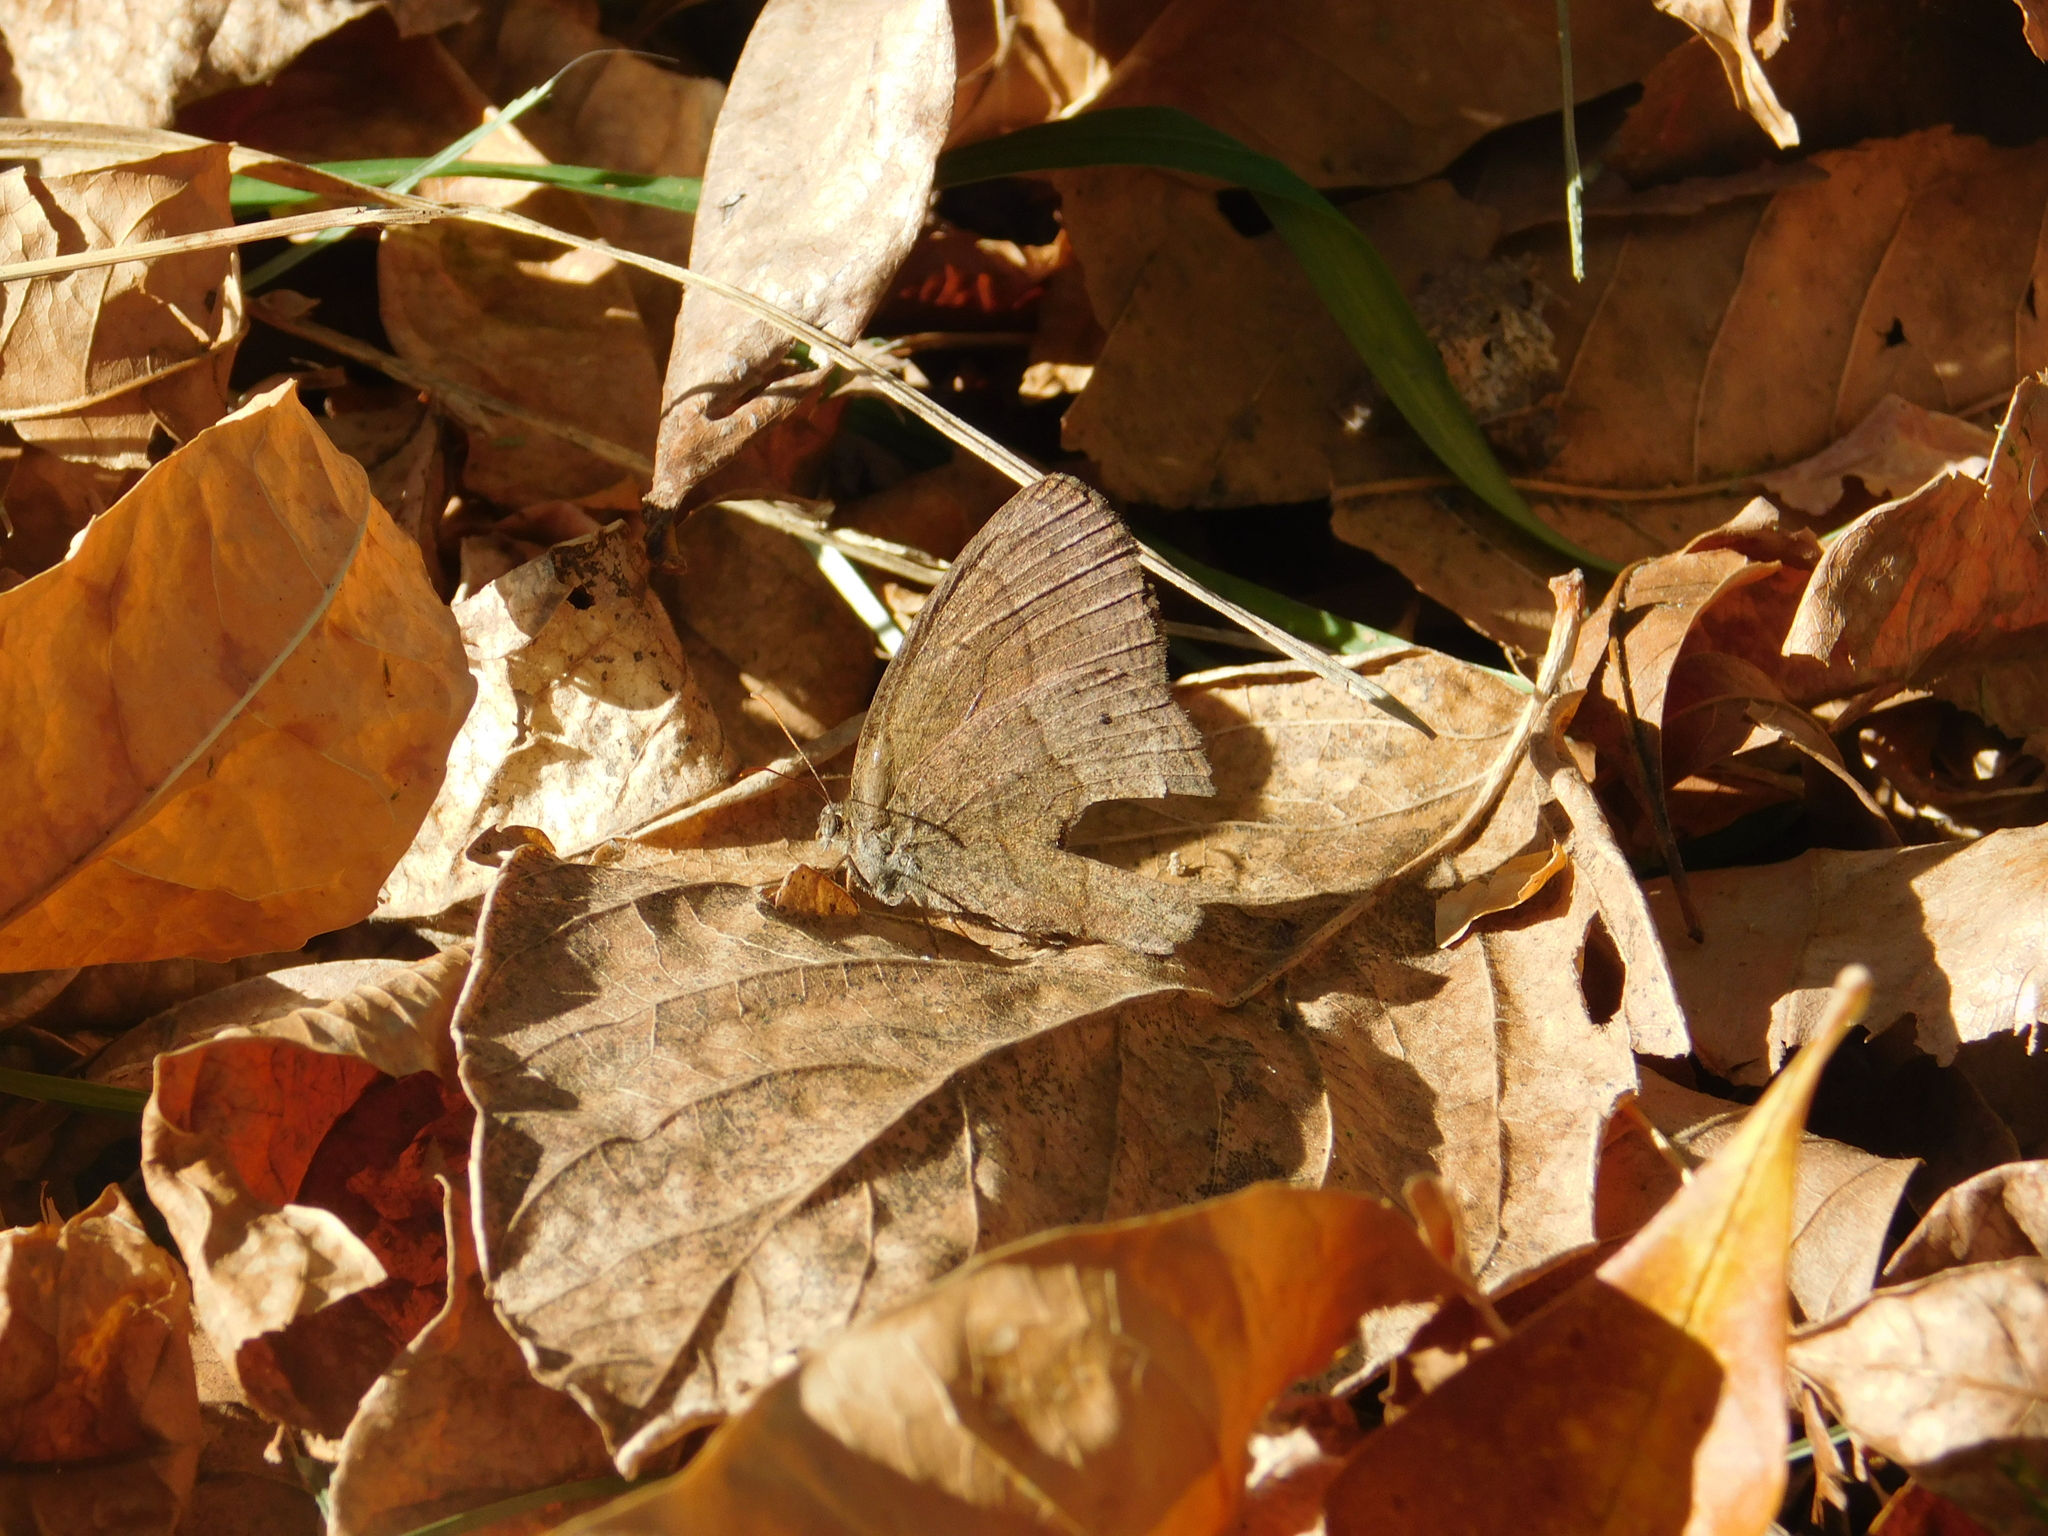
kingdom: Animalia
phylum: Arthropoda
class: Insecta
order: Lepidoptera
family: Nymphalidae
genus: Yphthimoides
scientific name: Yphthimoides celmis
